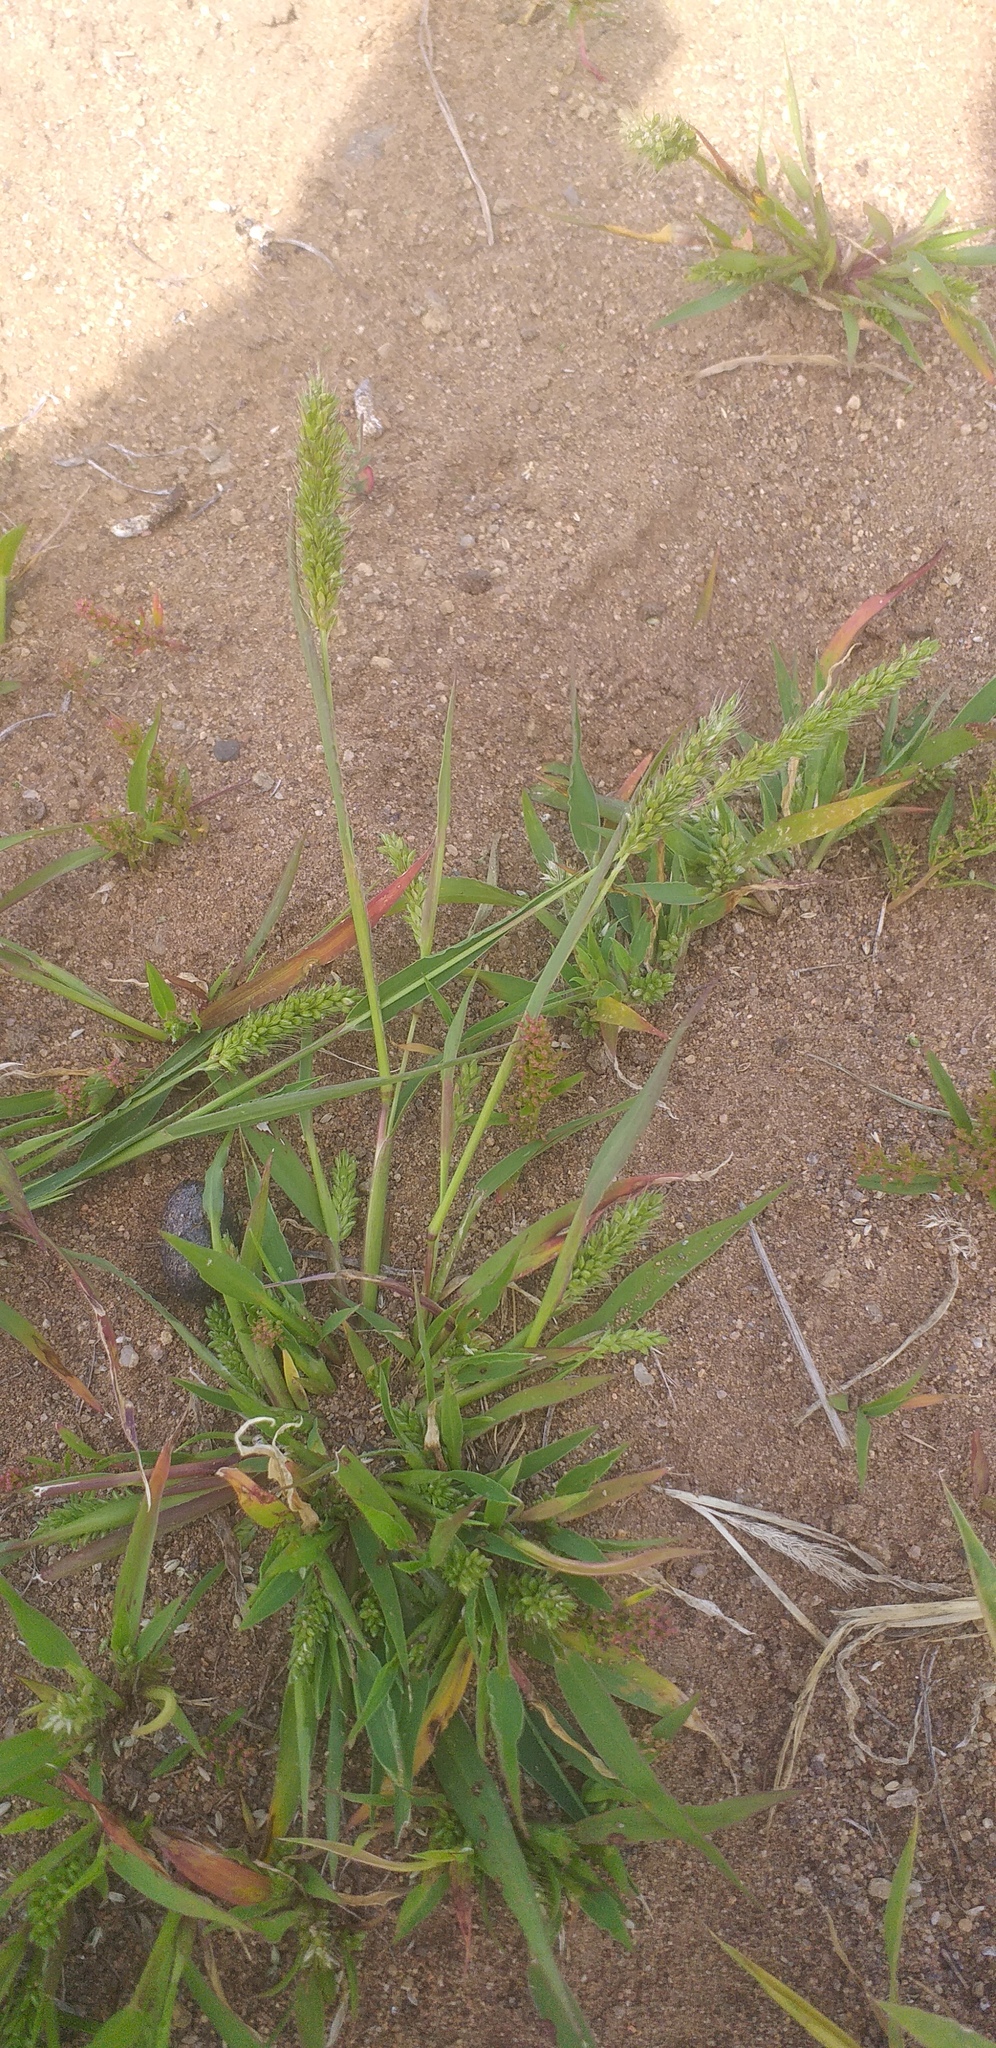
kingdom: Plantae
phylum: Tracheophyta
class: Liliopsida
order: Poales
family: Poaceae
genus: Setaria
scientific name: Setaria viridis
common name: Green bristlegrass
